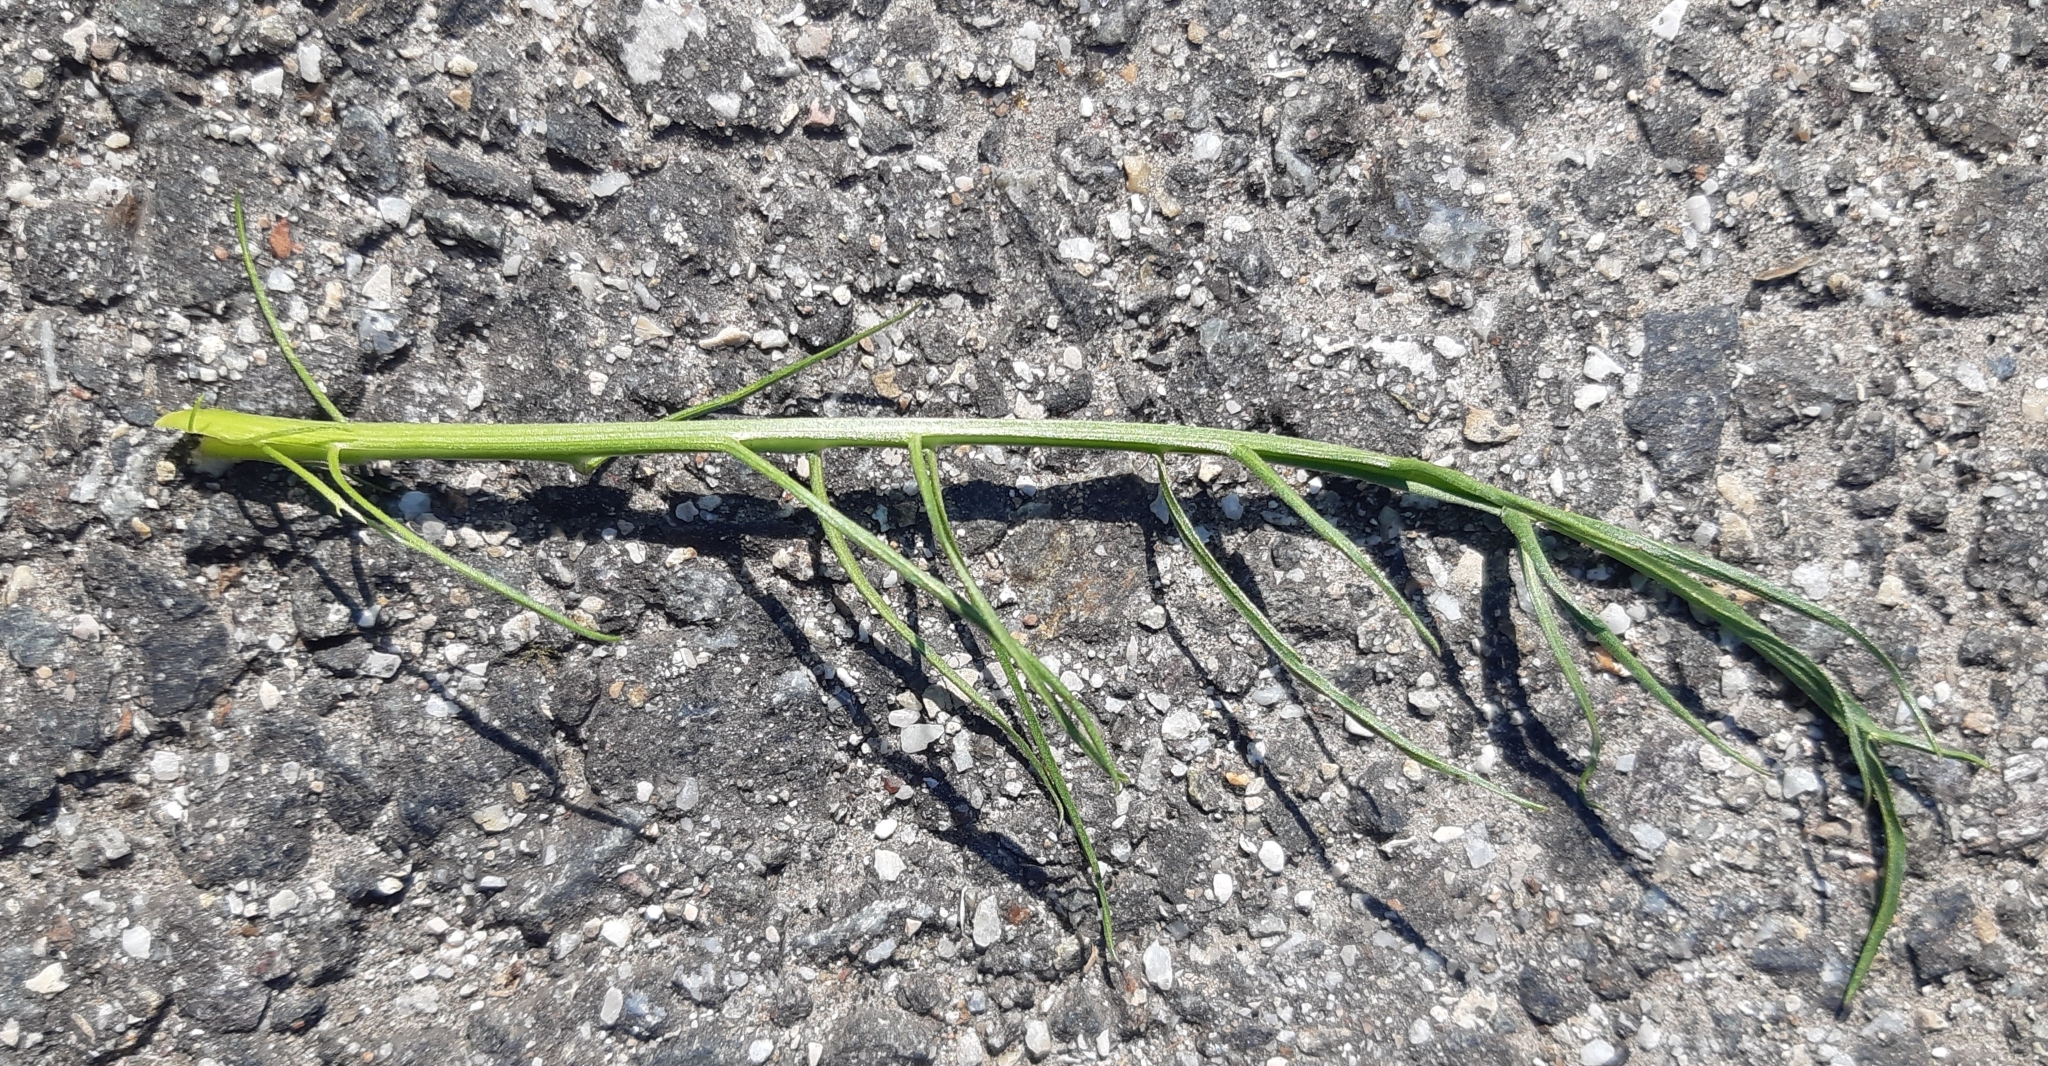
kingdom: Plantae
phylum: Tracheophyta
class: Magnoliopsida
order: Asterales
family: Asteraceae
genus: Scorzonera
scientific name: Scorzonera cana
